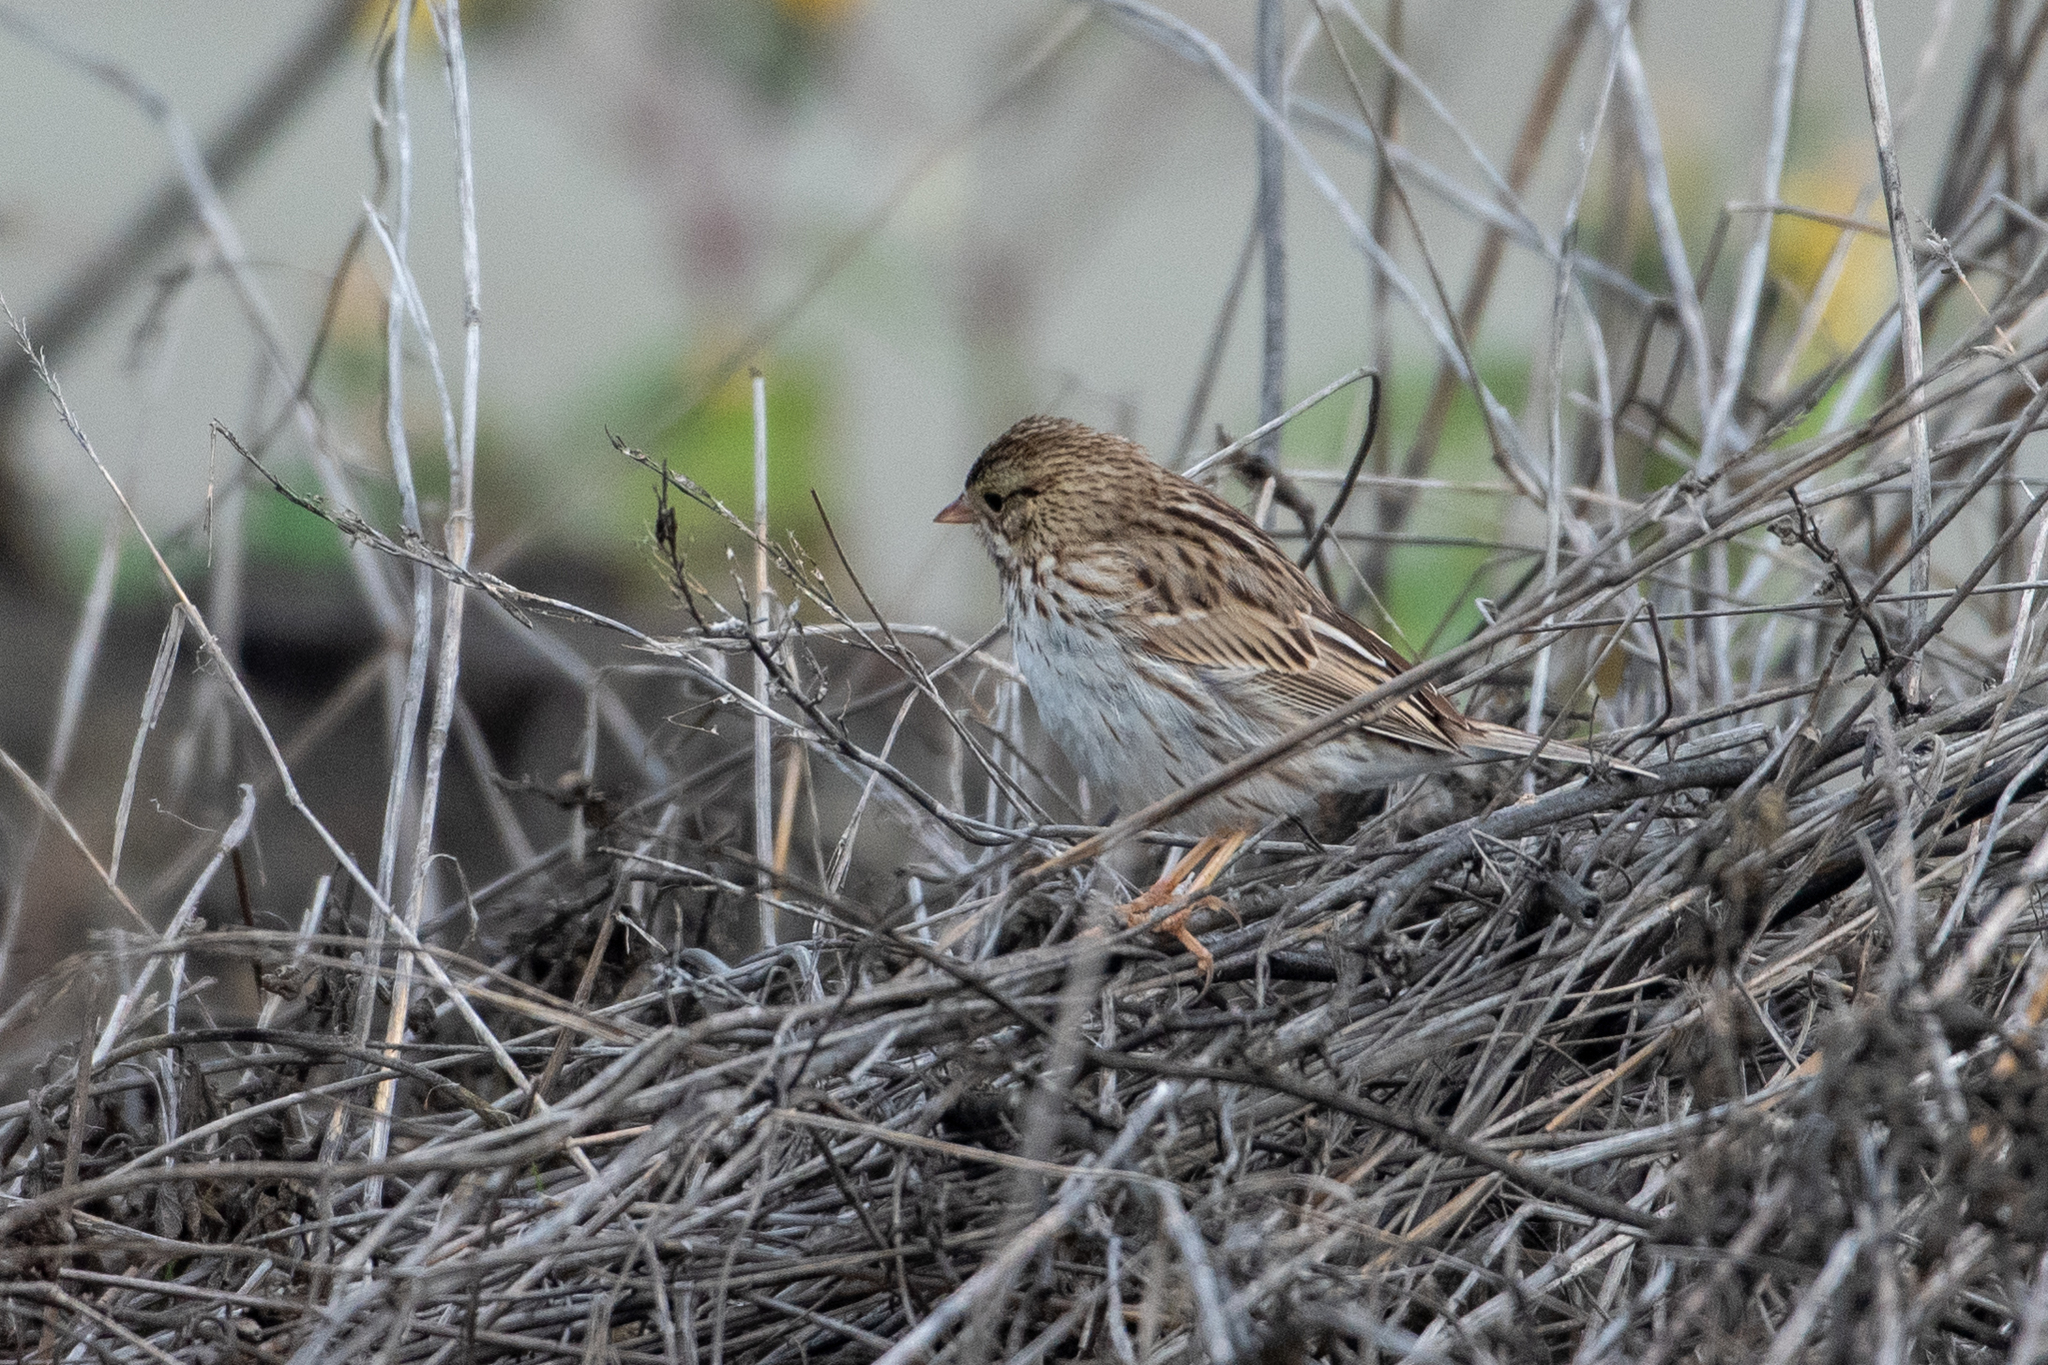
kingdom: Animalia
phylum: Chordata
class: Aves
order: Passeriformes
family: Passerellidae
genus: Passerculus
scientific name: Passerculus sandwichensis
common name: Savannah sparrow
